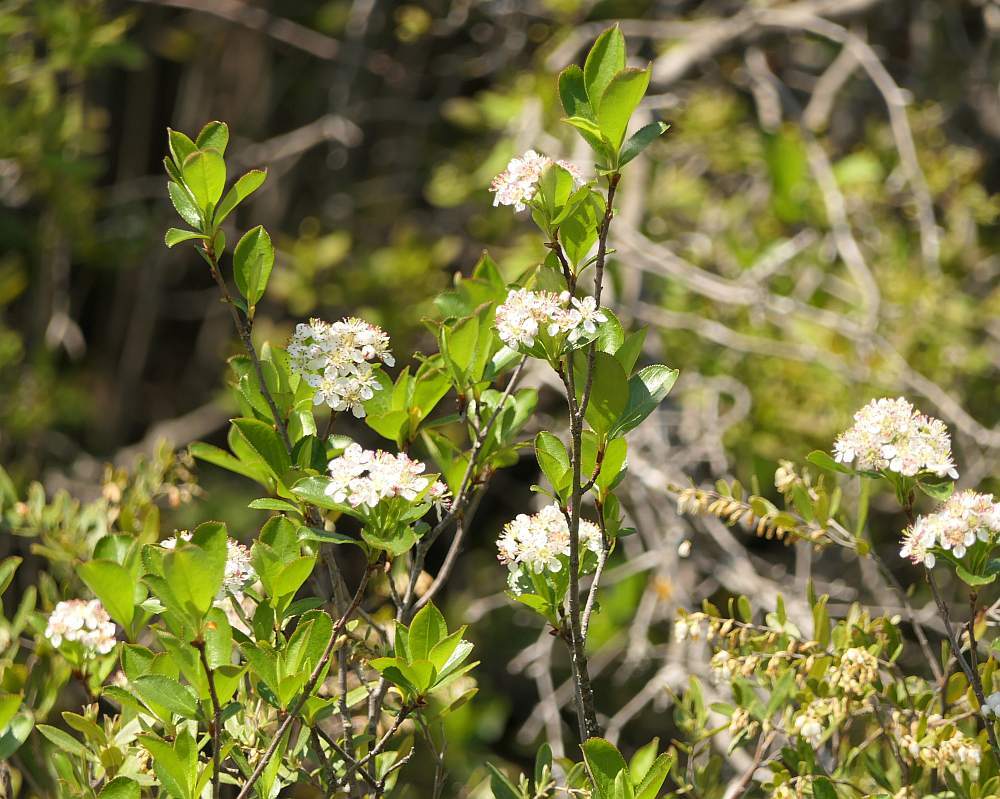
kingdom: Plantae
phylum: Tracheophyta
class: Magnoliopsida
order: Rosales
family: Rosaceae
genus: Aronia
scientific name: Aronia melanocarpa
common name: Black chokeberry
